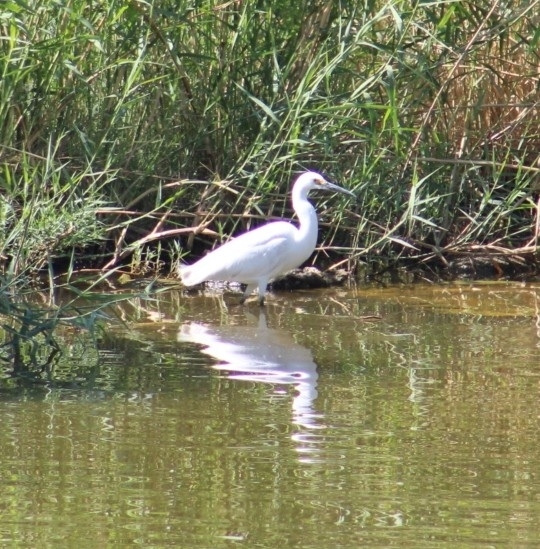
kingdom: Animalia
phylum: Chordata
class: Aves
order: Pelecaniformes
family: Ardeidae
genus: Egretta
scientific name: Egretta thula
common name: Snowy egret
